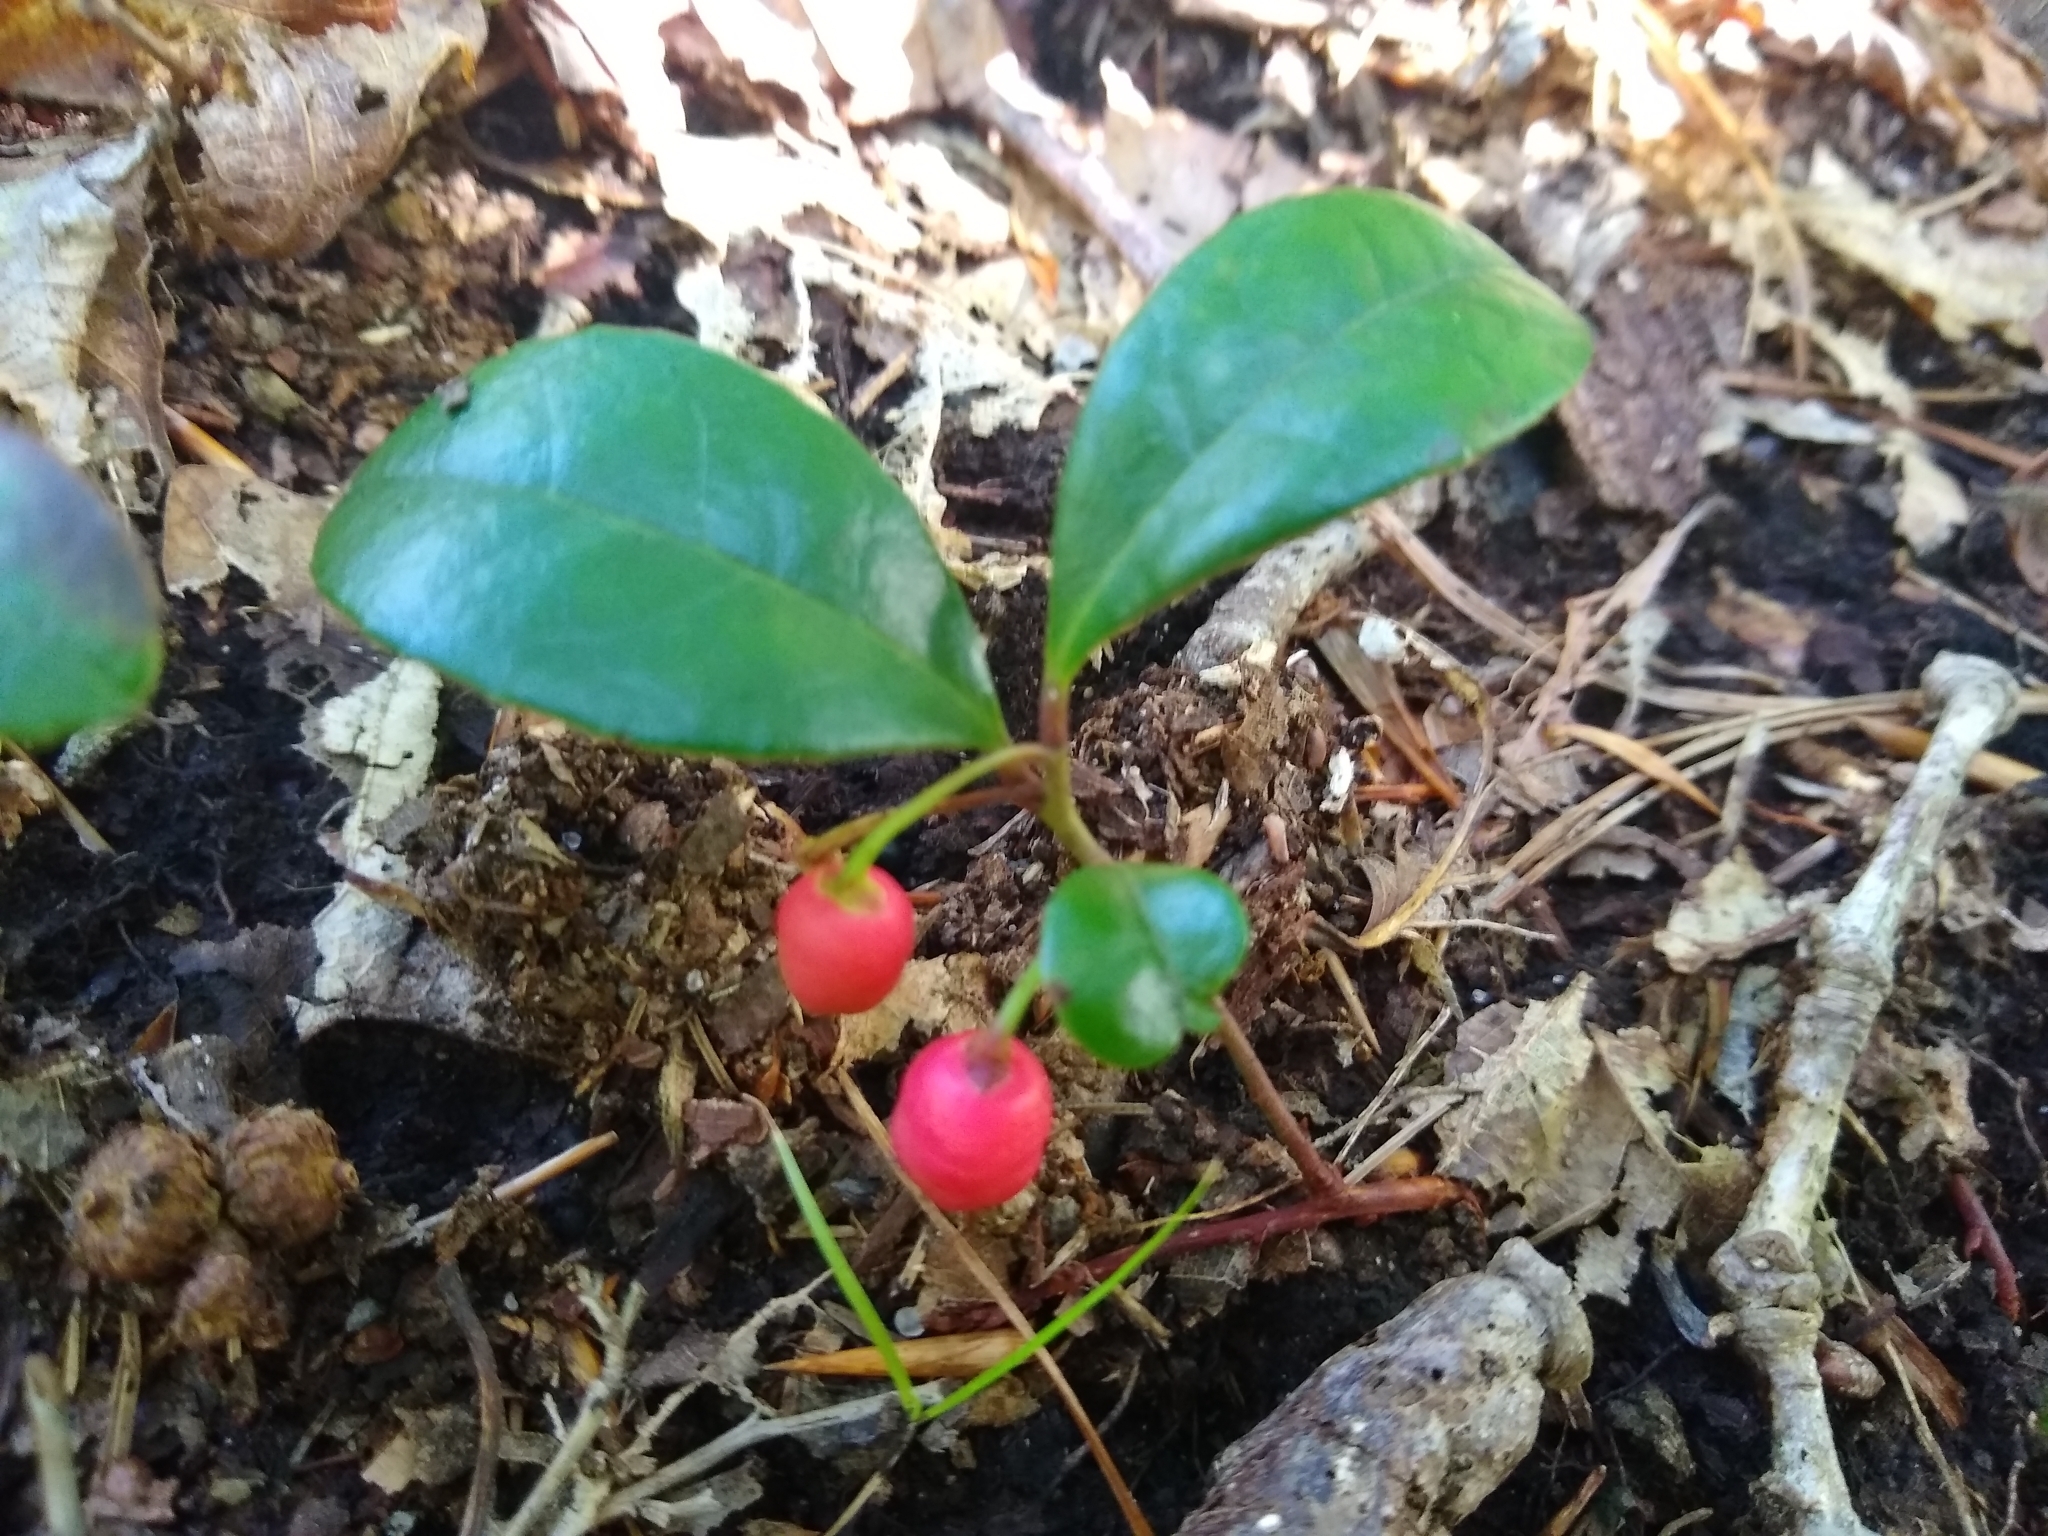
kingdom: Plantae
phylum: Tracheophyta
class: Magnoliopsida
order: Ericales
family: Ericaceae
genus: Gaultheria
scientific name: Gaultheria procumbens
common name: Checkerberry
